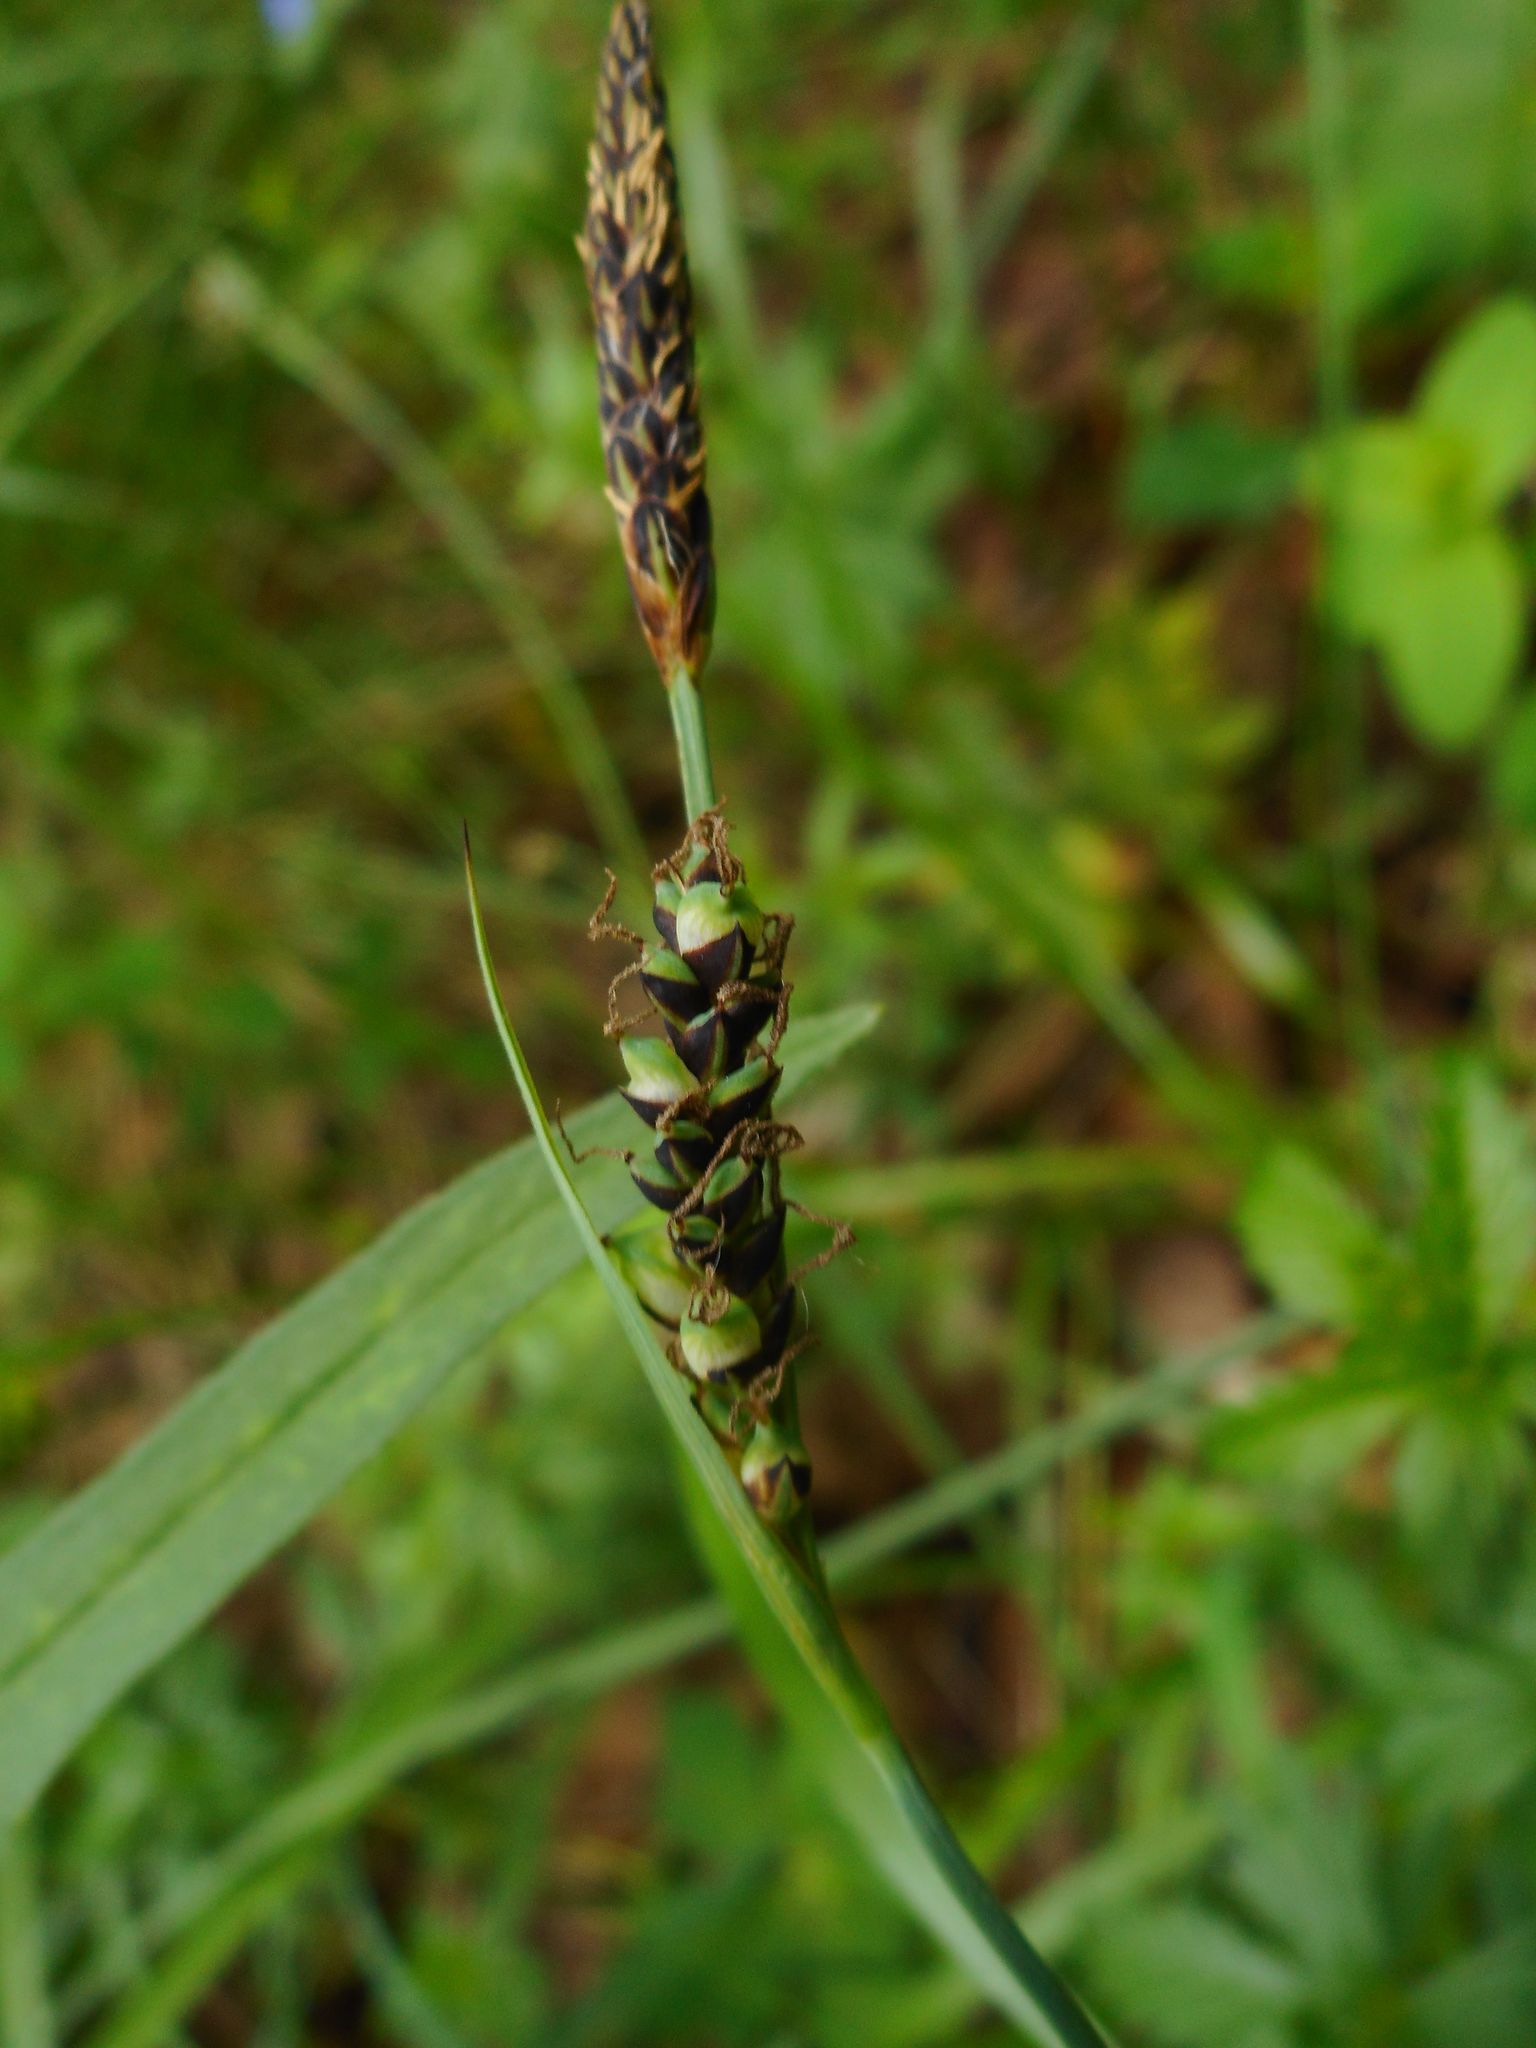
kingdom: Plantae
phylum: Tracheophyta
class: Liliopsida
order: Poales
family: Cyperaceae
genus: Carex
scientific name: Carex panicea
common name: Carnation sedge
